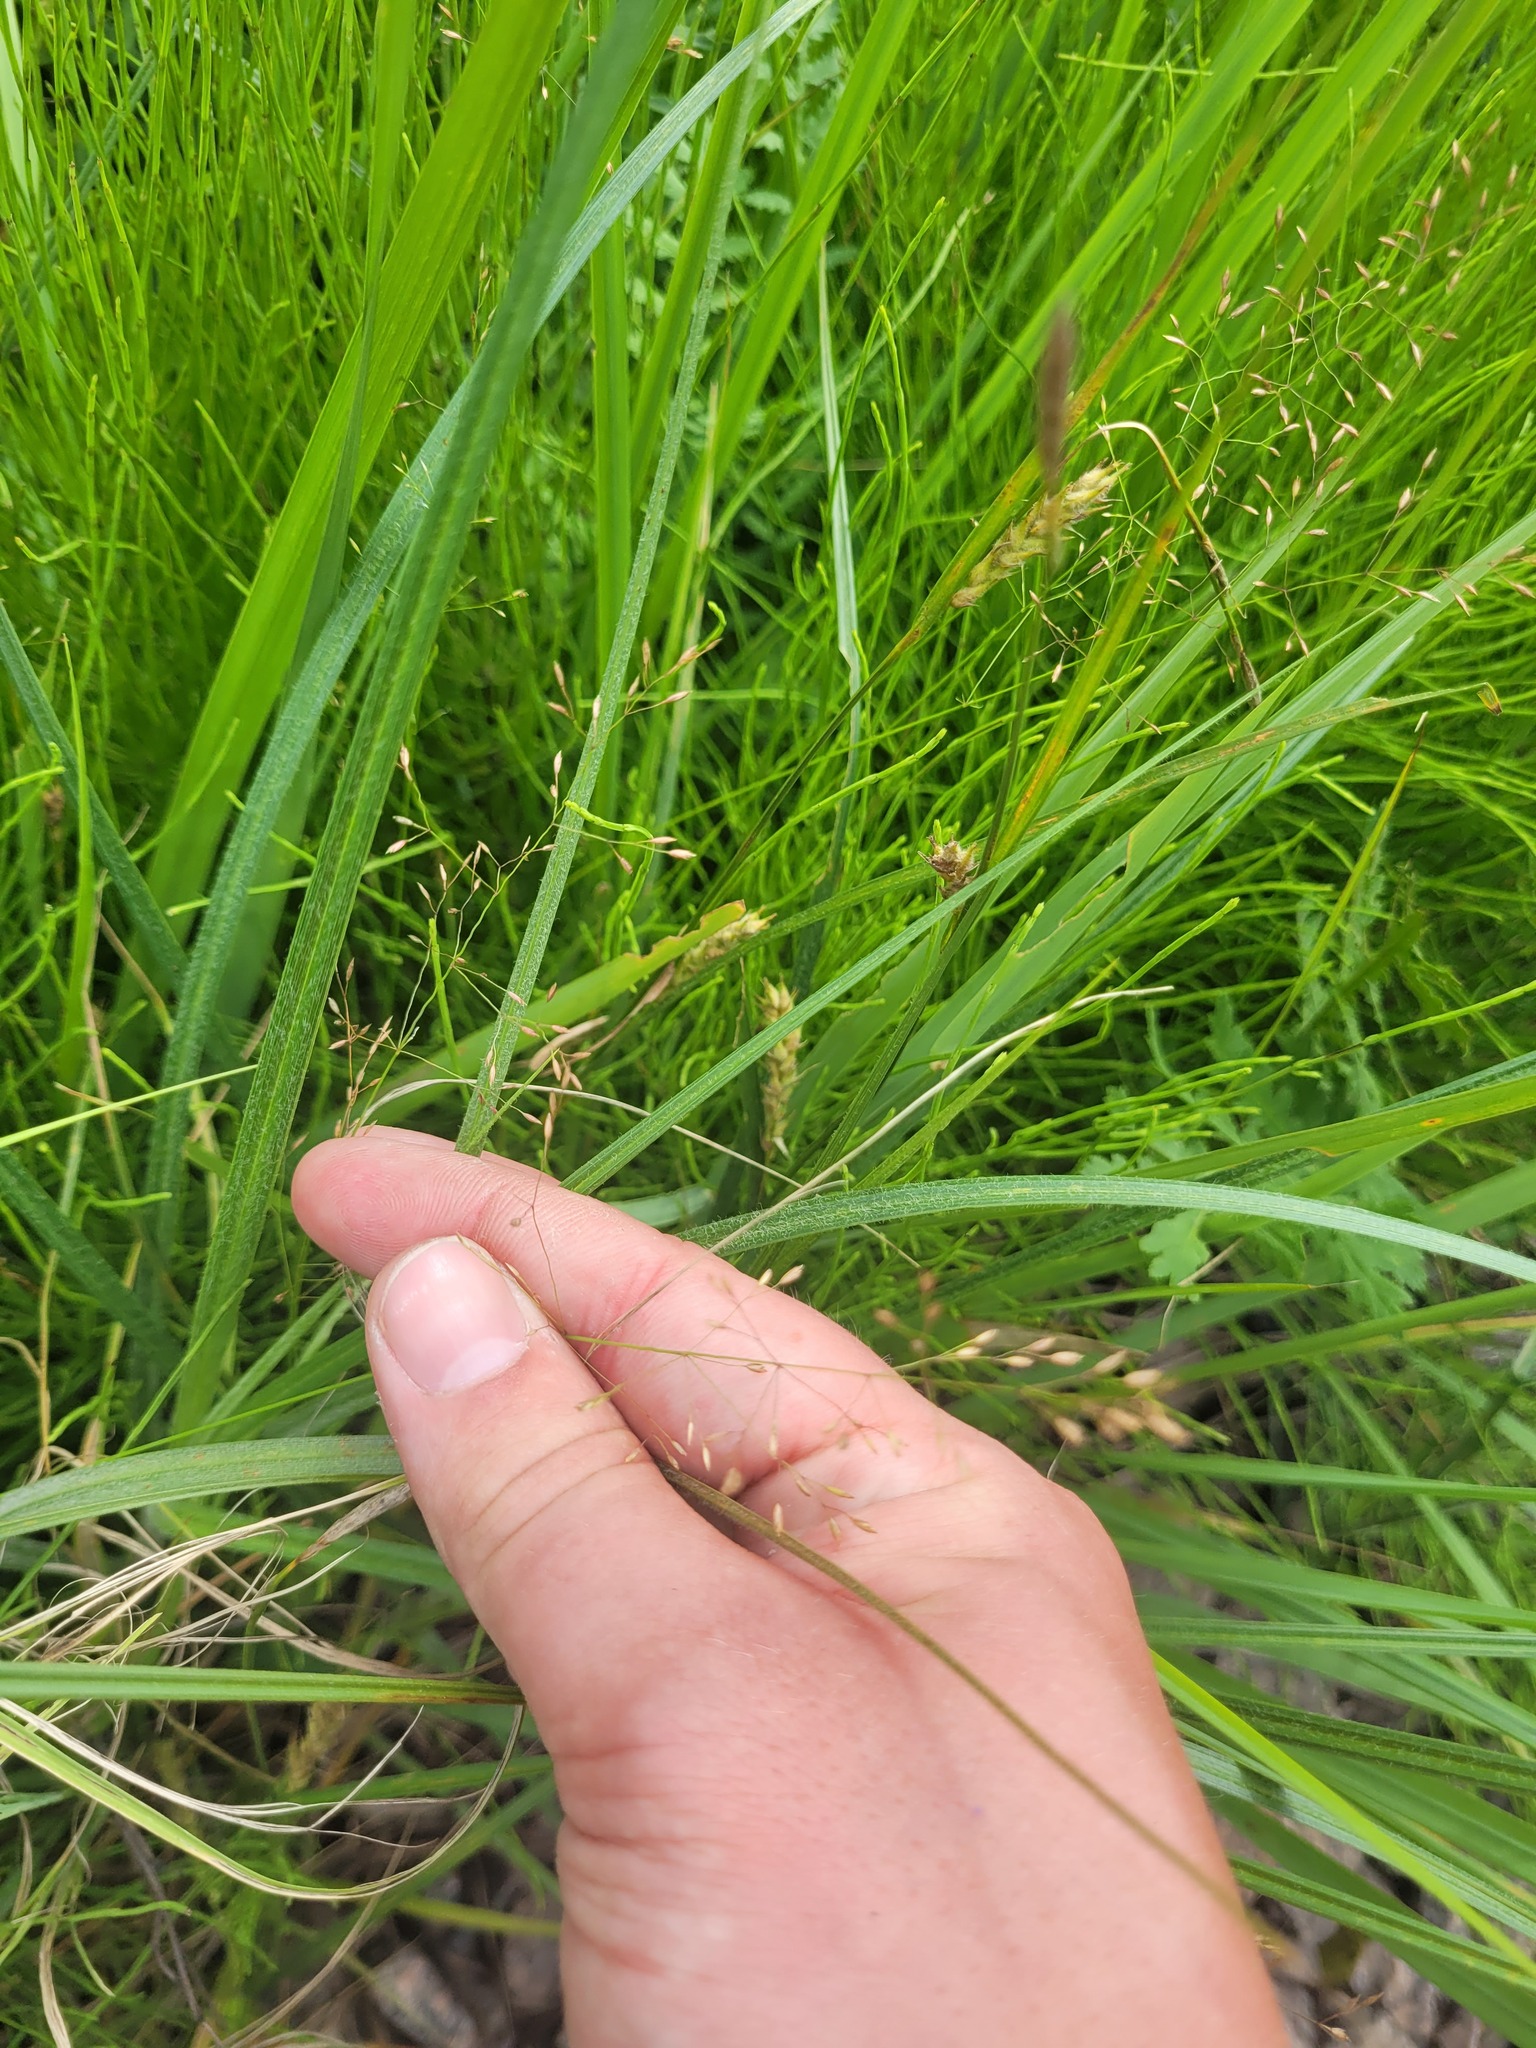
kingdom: Plantae
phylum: Tracheophyta
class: Liliopsida
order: Poales
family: Poaceae
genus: Poa
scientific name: Poa palustris
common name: Swamp meadow-grass
